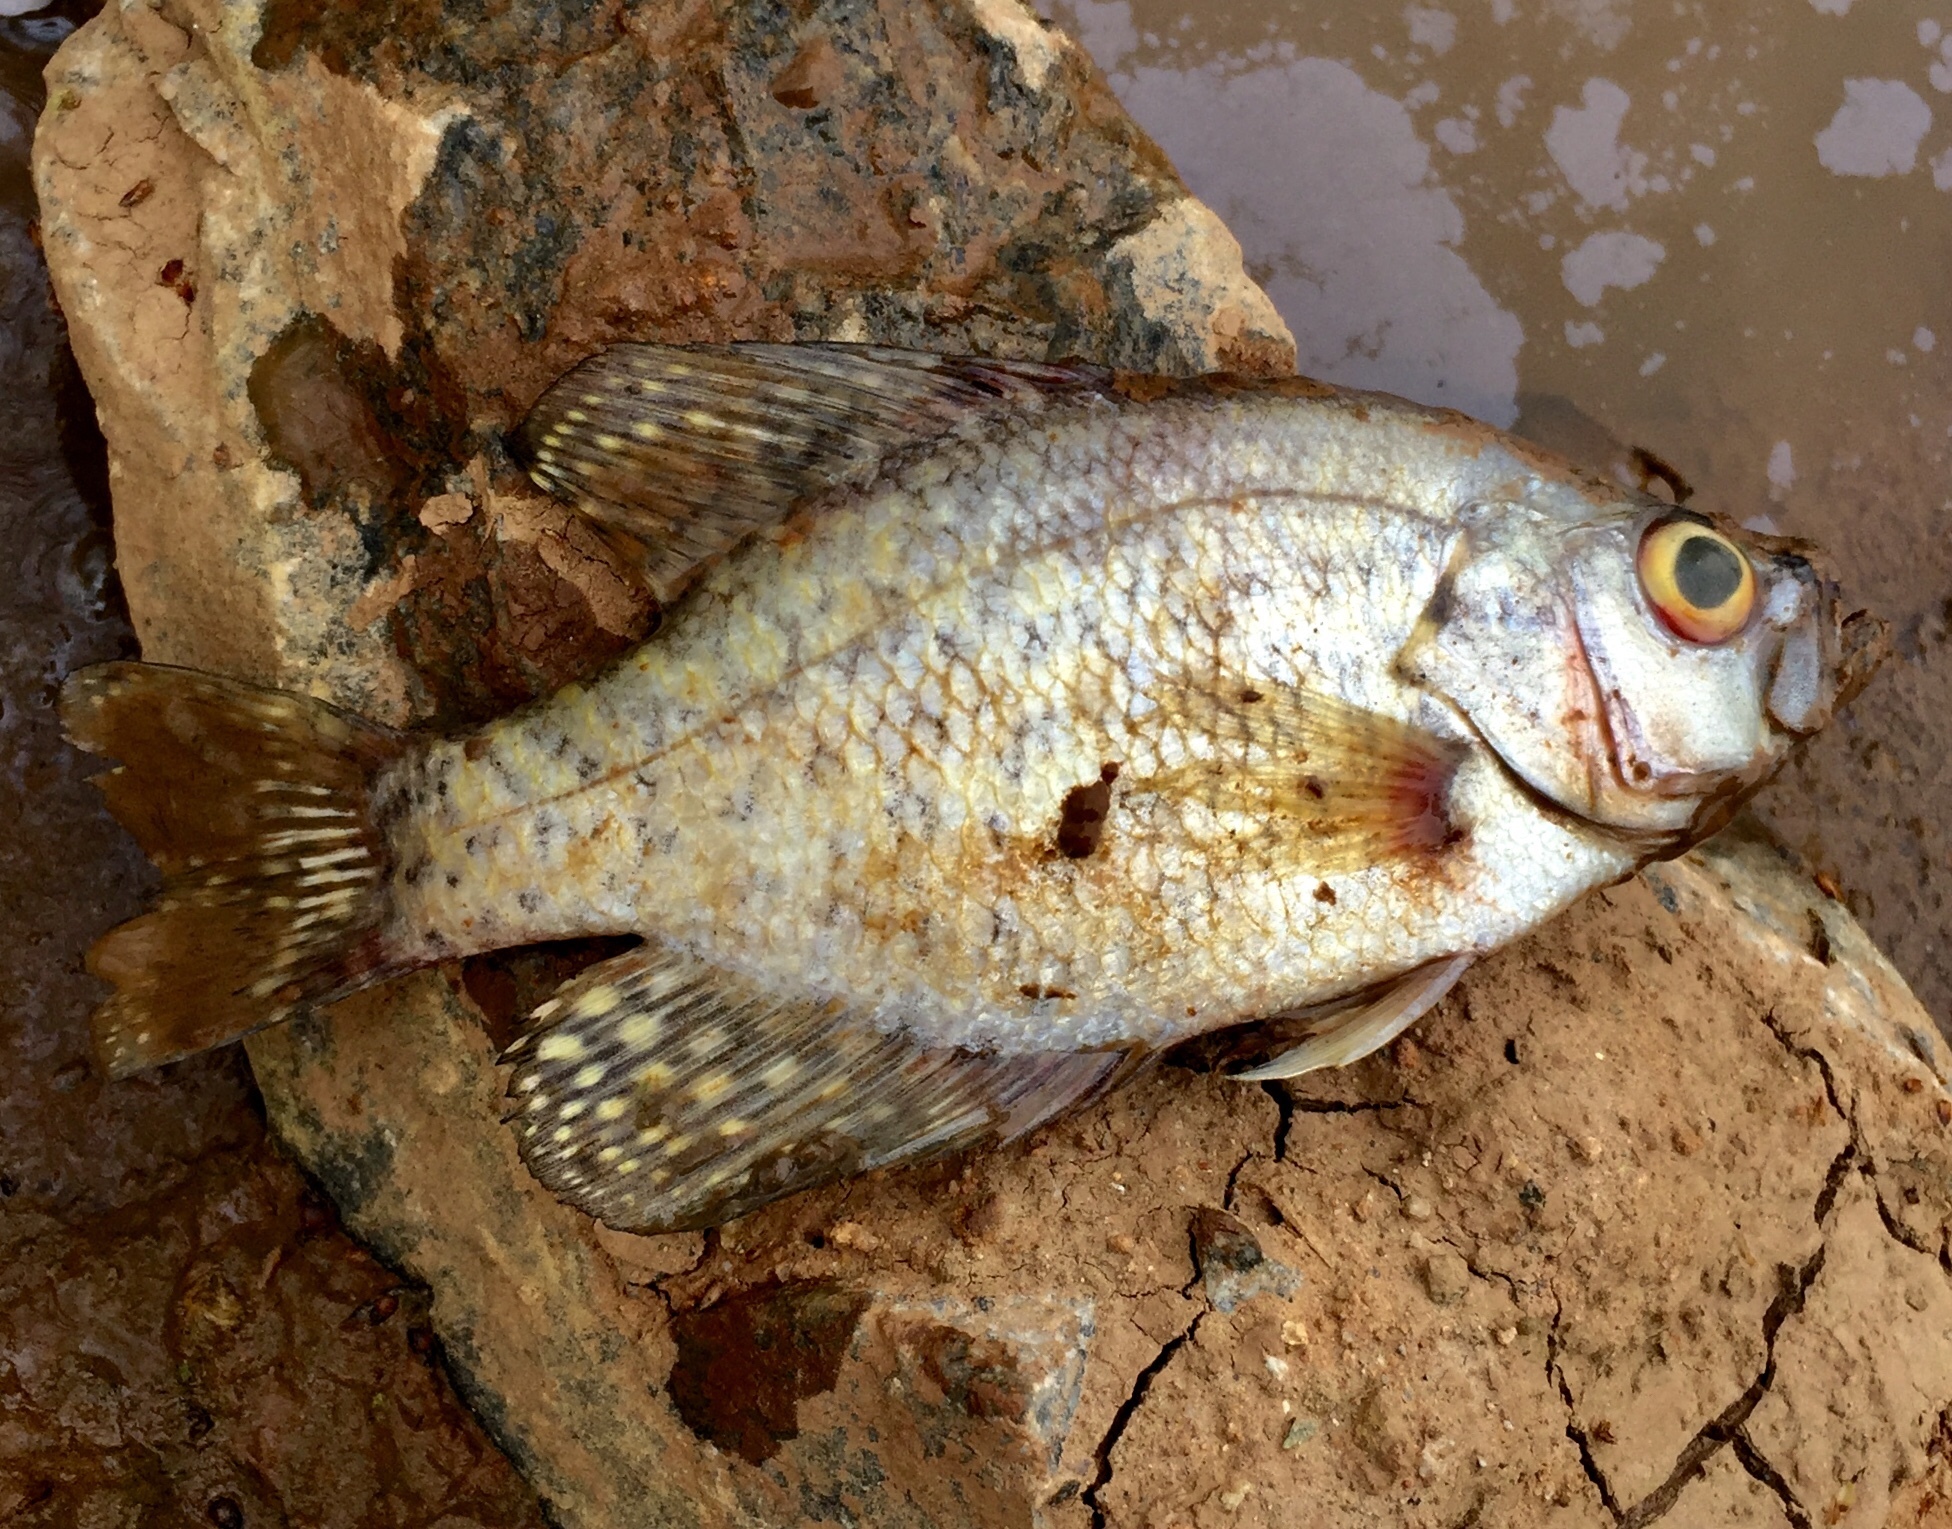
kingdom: Animalia
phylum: Chordata
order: Perciformes
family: Centrarchidae
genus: Pomoxis
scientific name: Pomoxis nigromaculatus
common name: Black crappie
